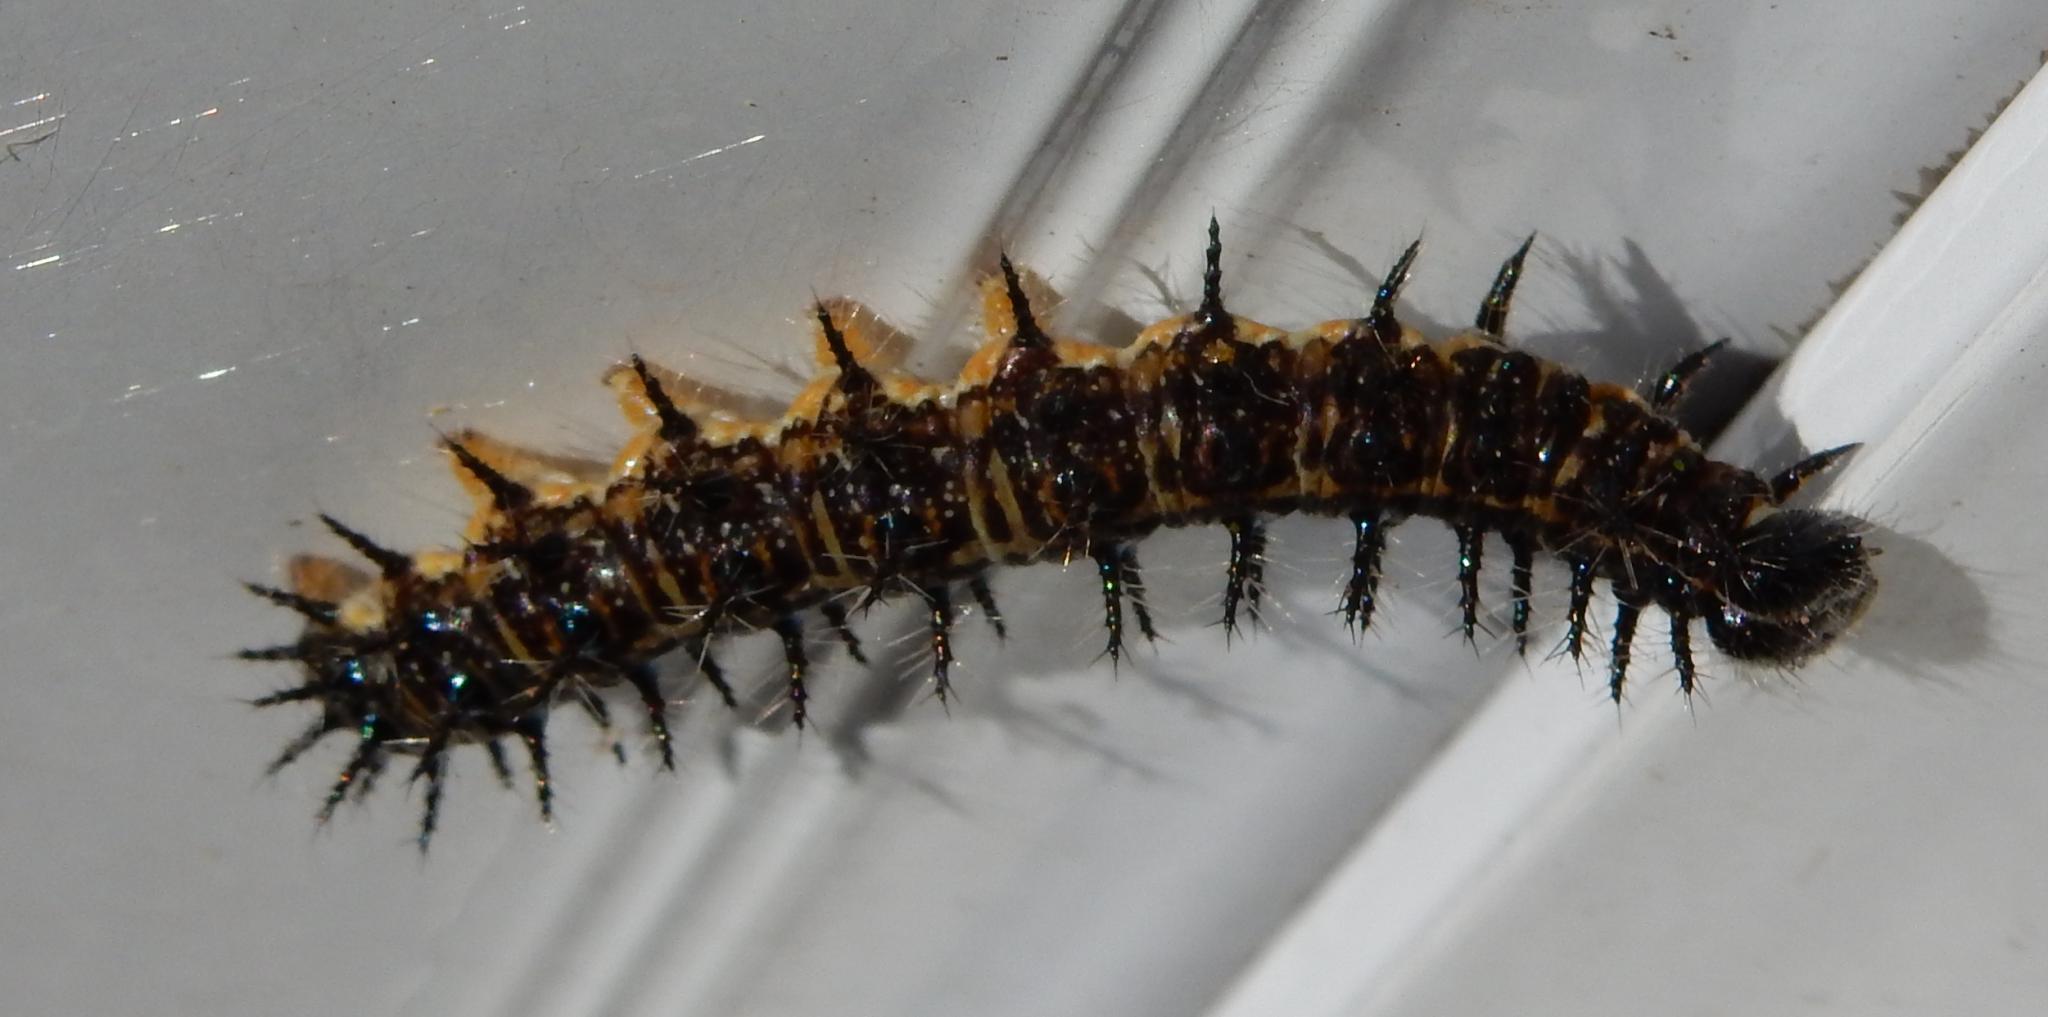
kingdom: Animalia
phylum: Arthropoda
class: Insecta
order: Lepidoptera
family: Nymphalidae
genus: Acraea
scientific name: Acraea horta
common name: Garden acraea
